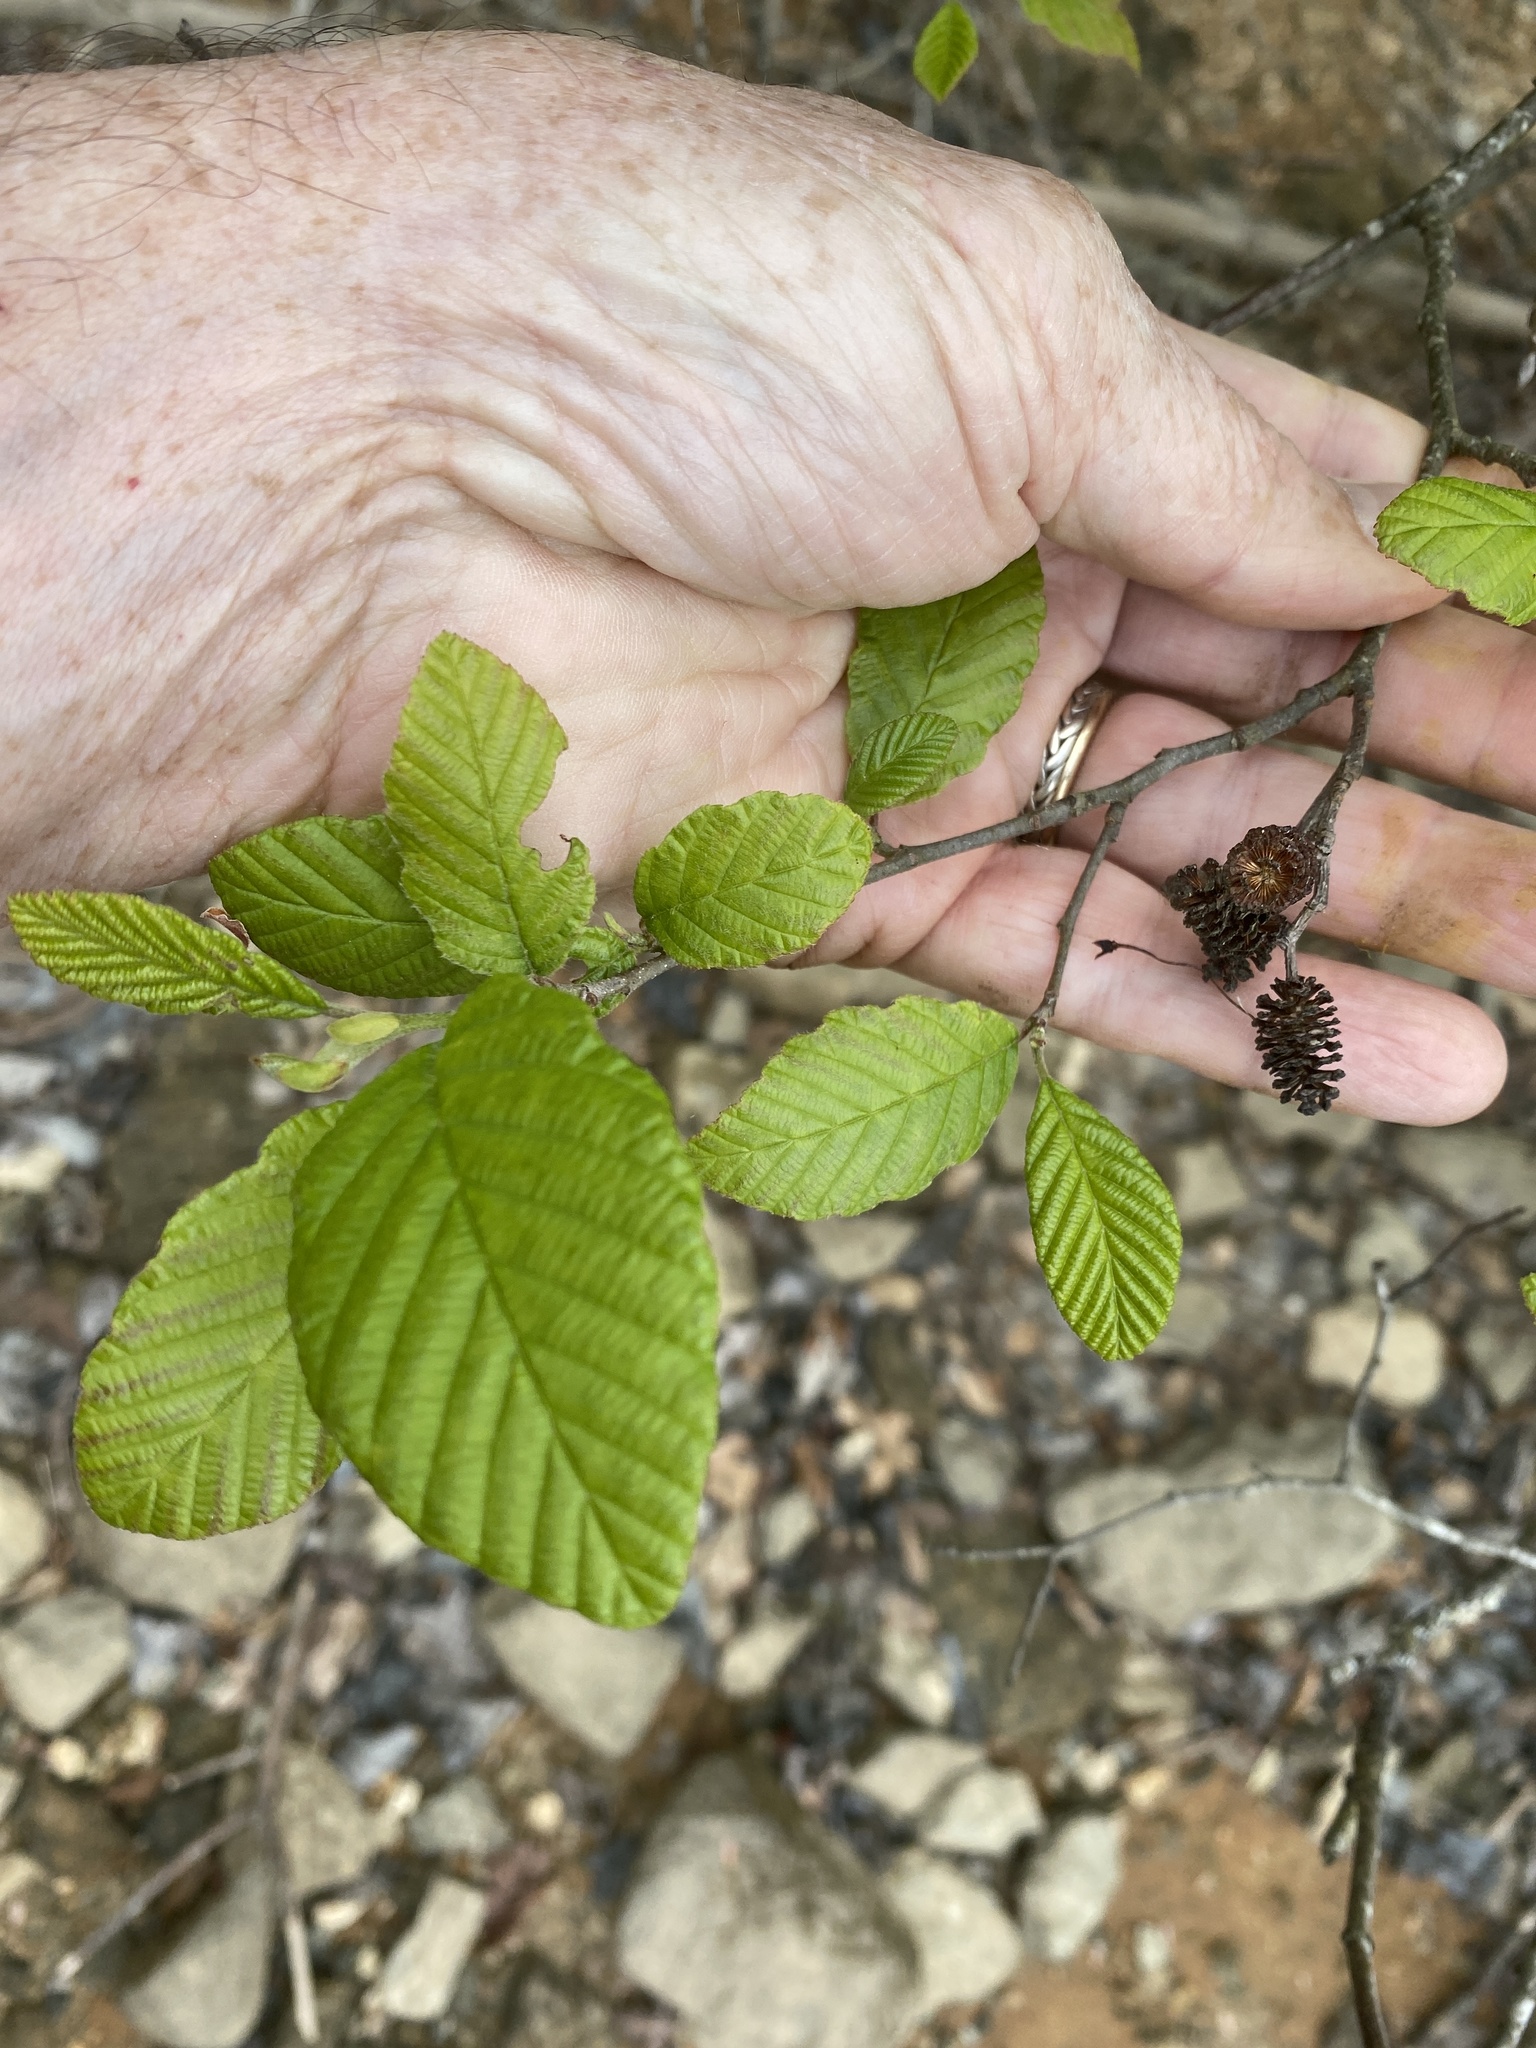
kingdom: Plantae
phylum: Tracheophyta
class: Magnoliopsida
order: Fagales
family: Betulaceae
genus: Alnus
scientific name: Alnus serrulata
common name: Hazel alder
